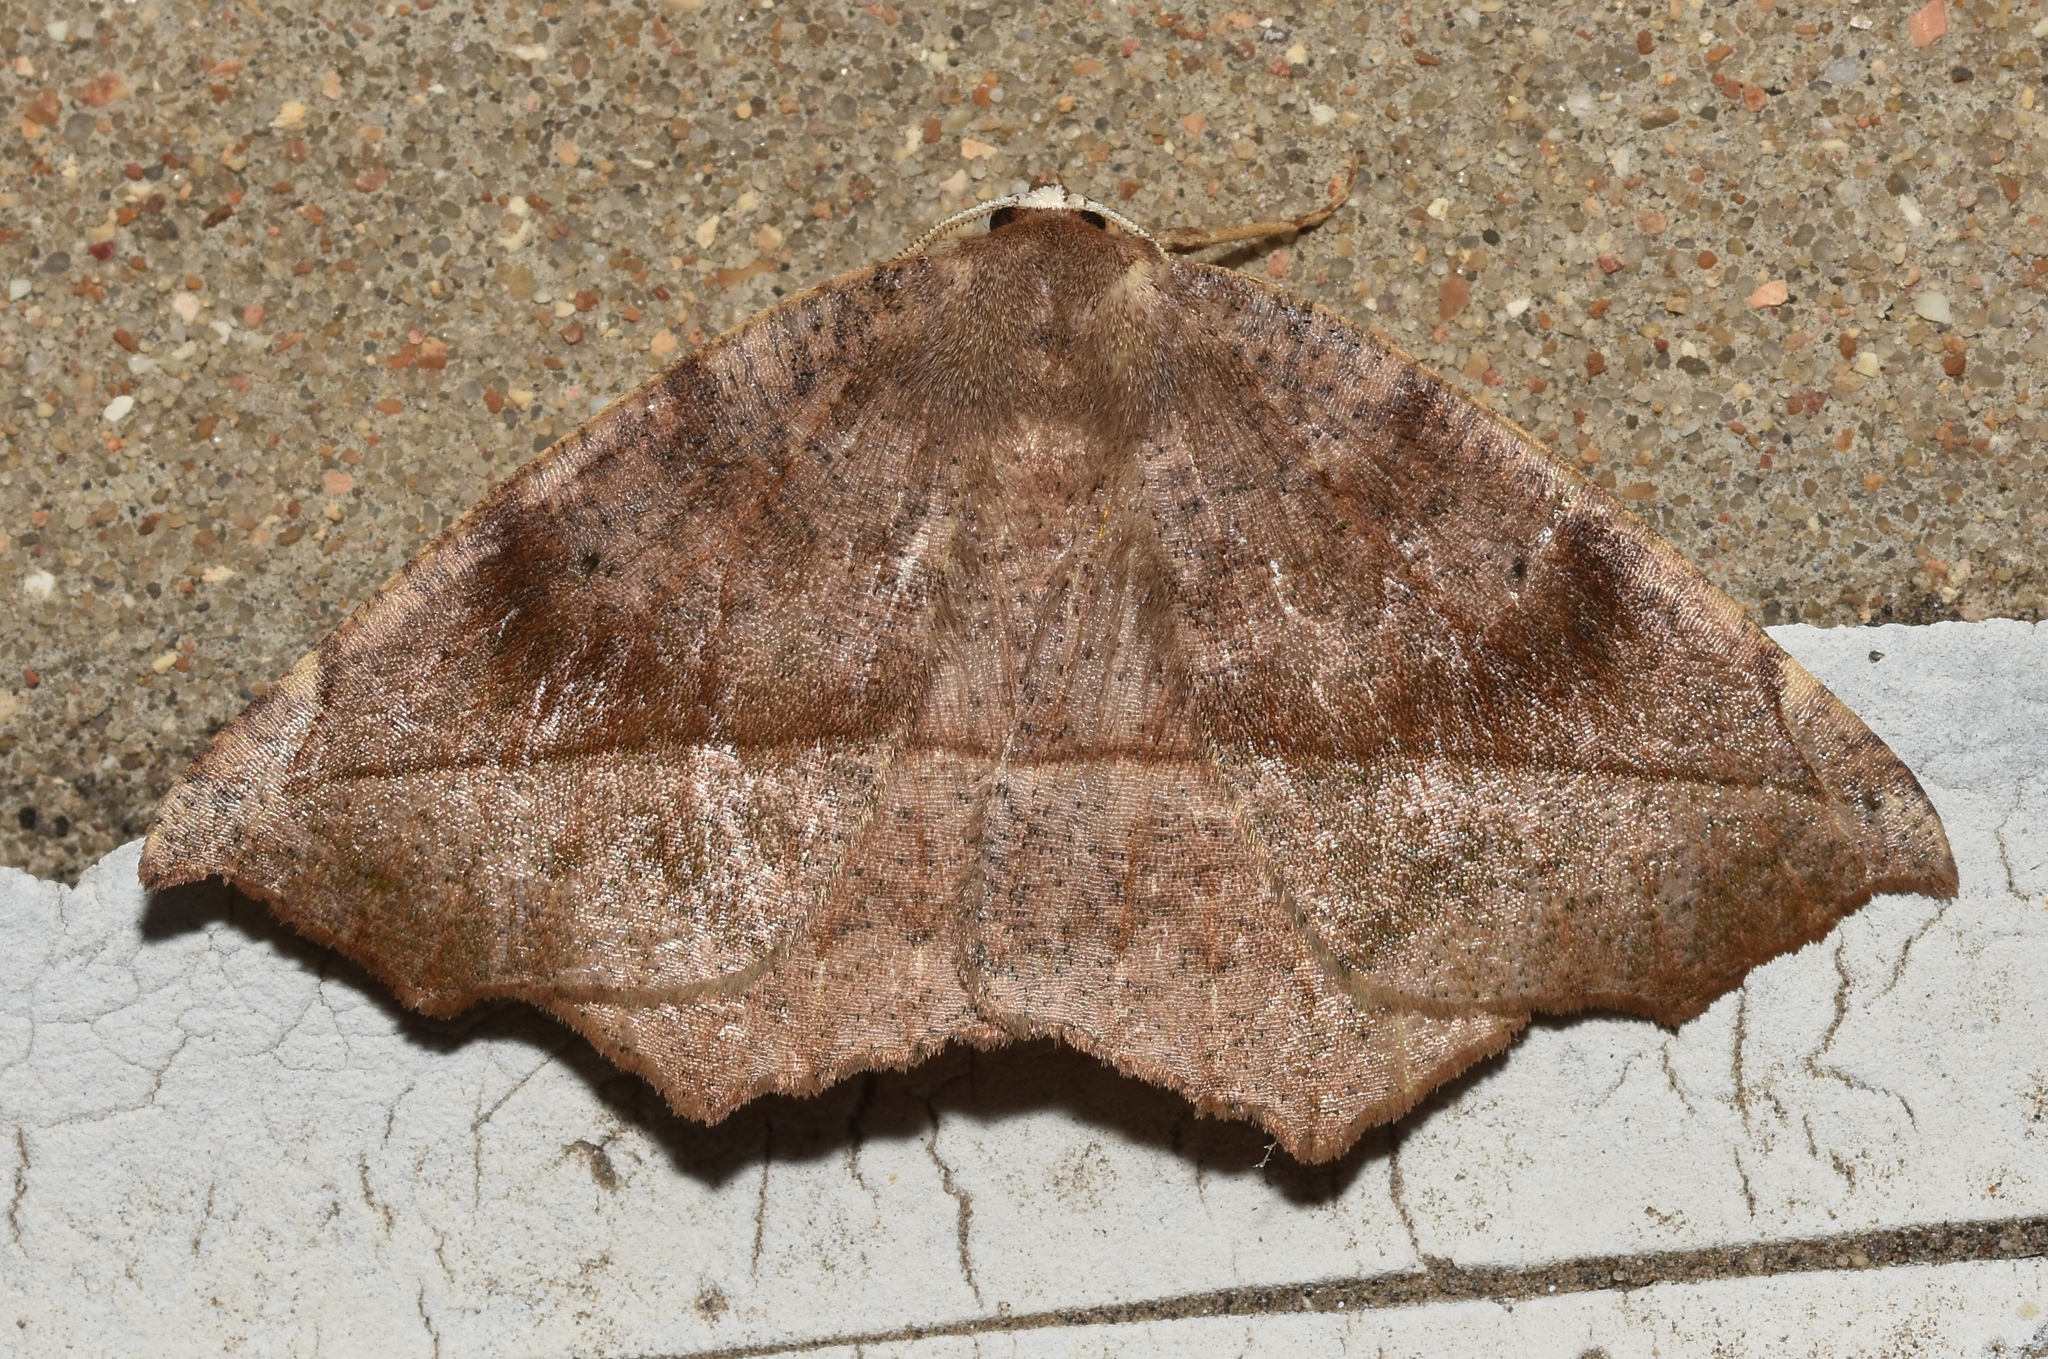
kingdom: Animalia
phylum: Arthropoda
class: Insecta
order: Lepidoptera
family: Geometridae
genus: Eutrapela
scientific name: Eutrapela clemataria
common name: Curved-toothed geometer
